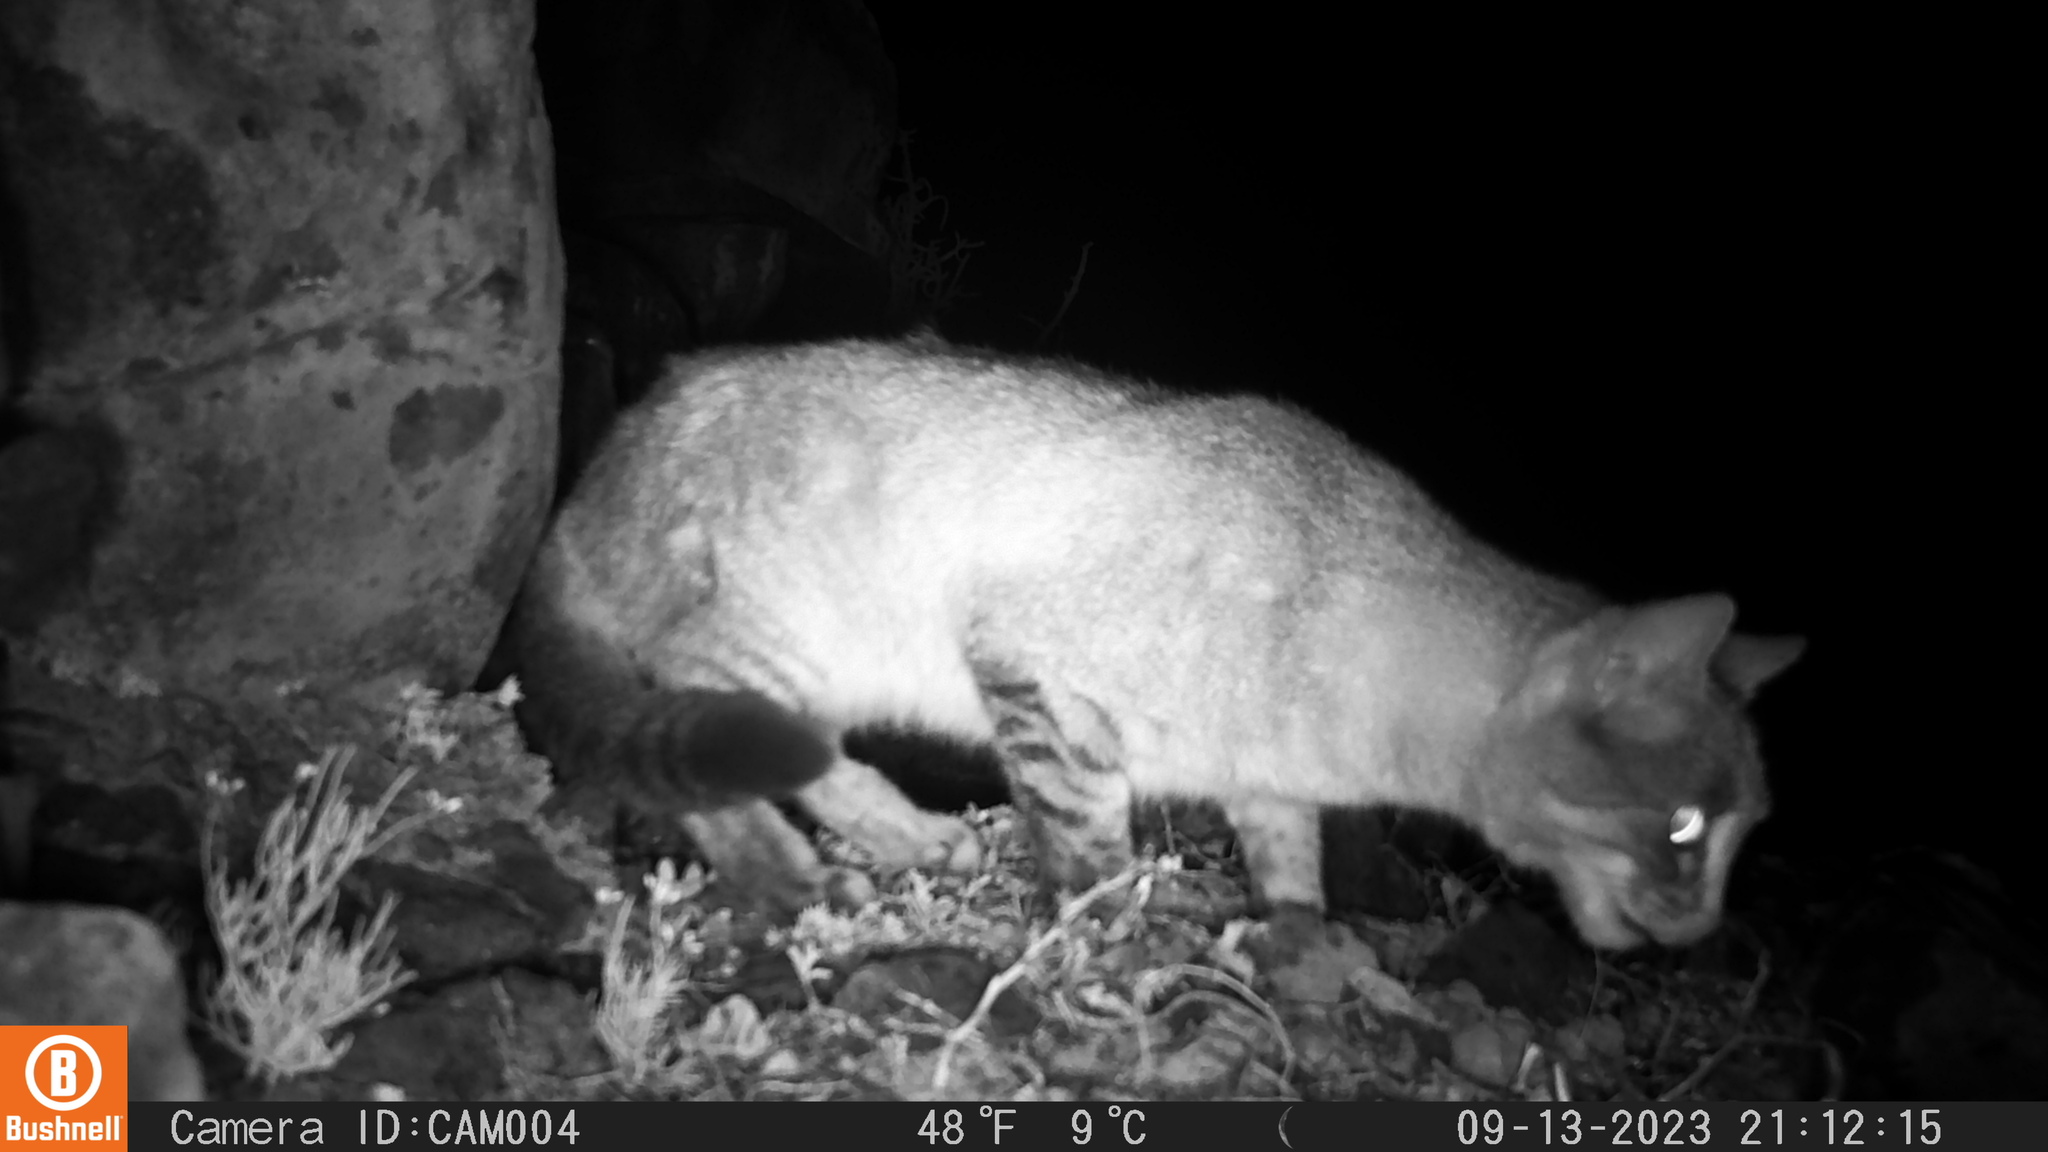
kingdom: Animalia
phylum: Chordata
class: Mammalia
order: Carnivora
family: Felidae
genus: Felis
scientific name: Felis silvestris
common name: Wildcat
